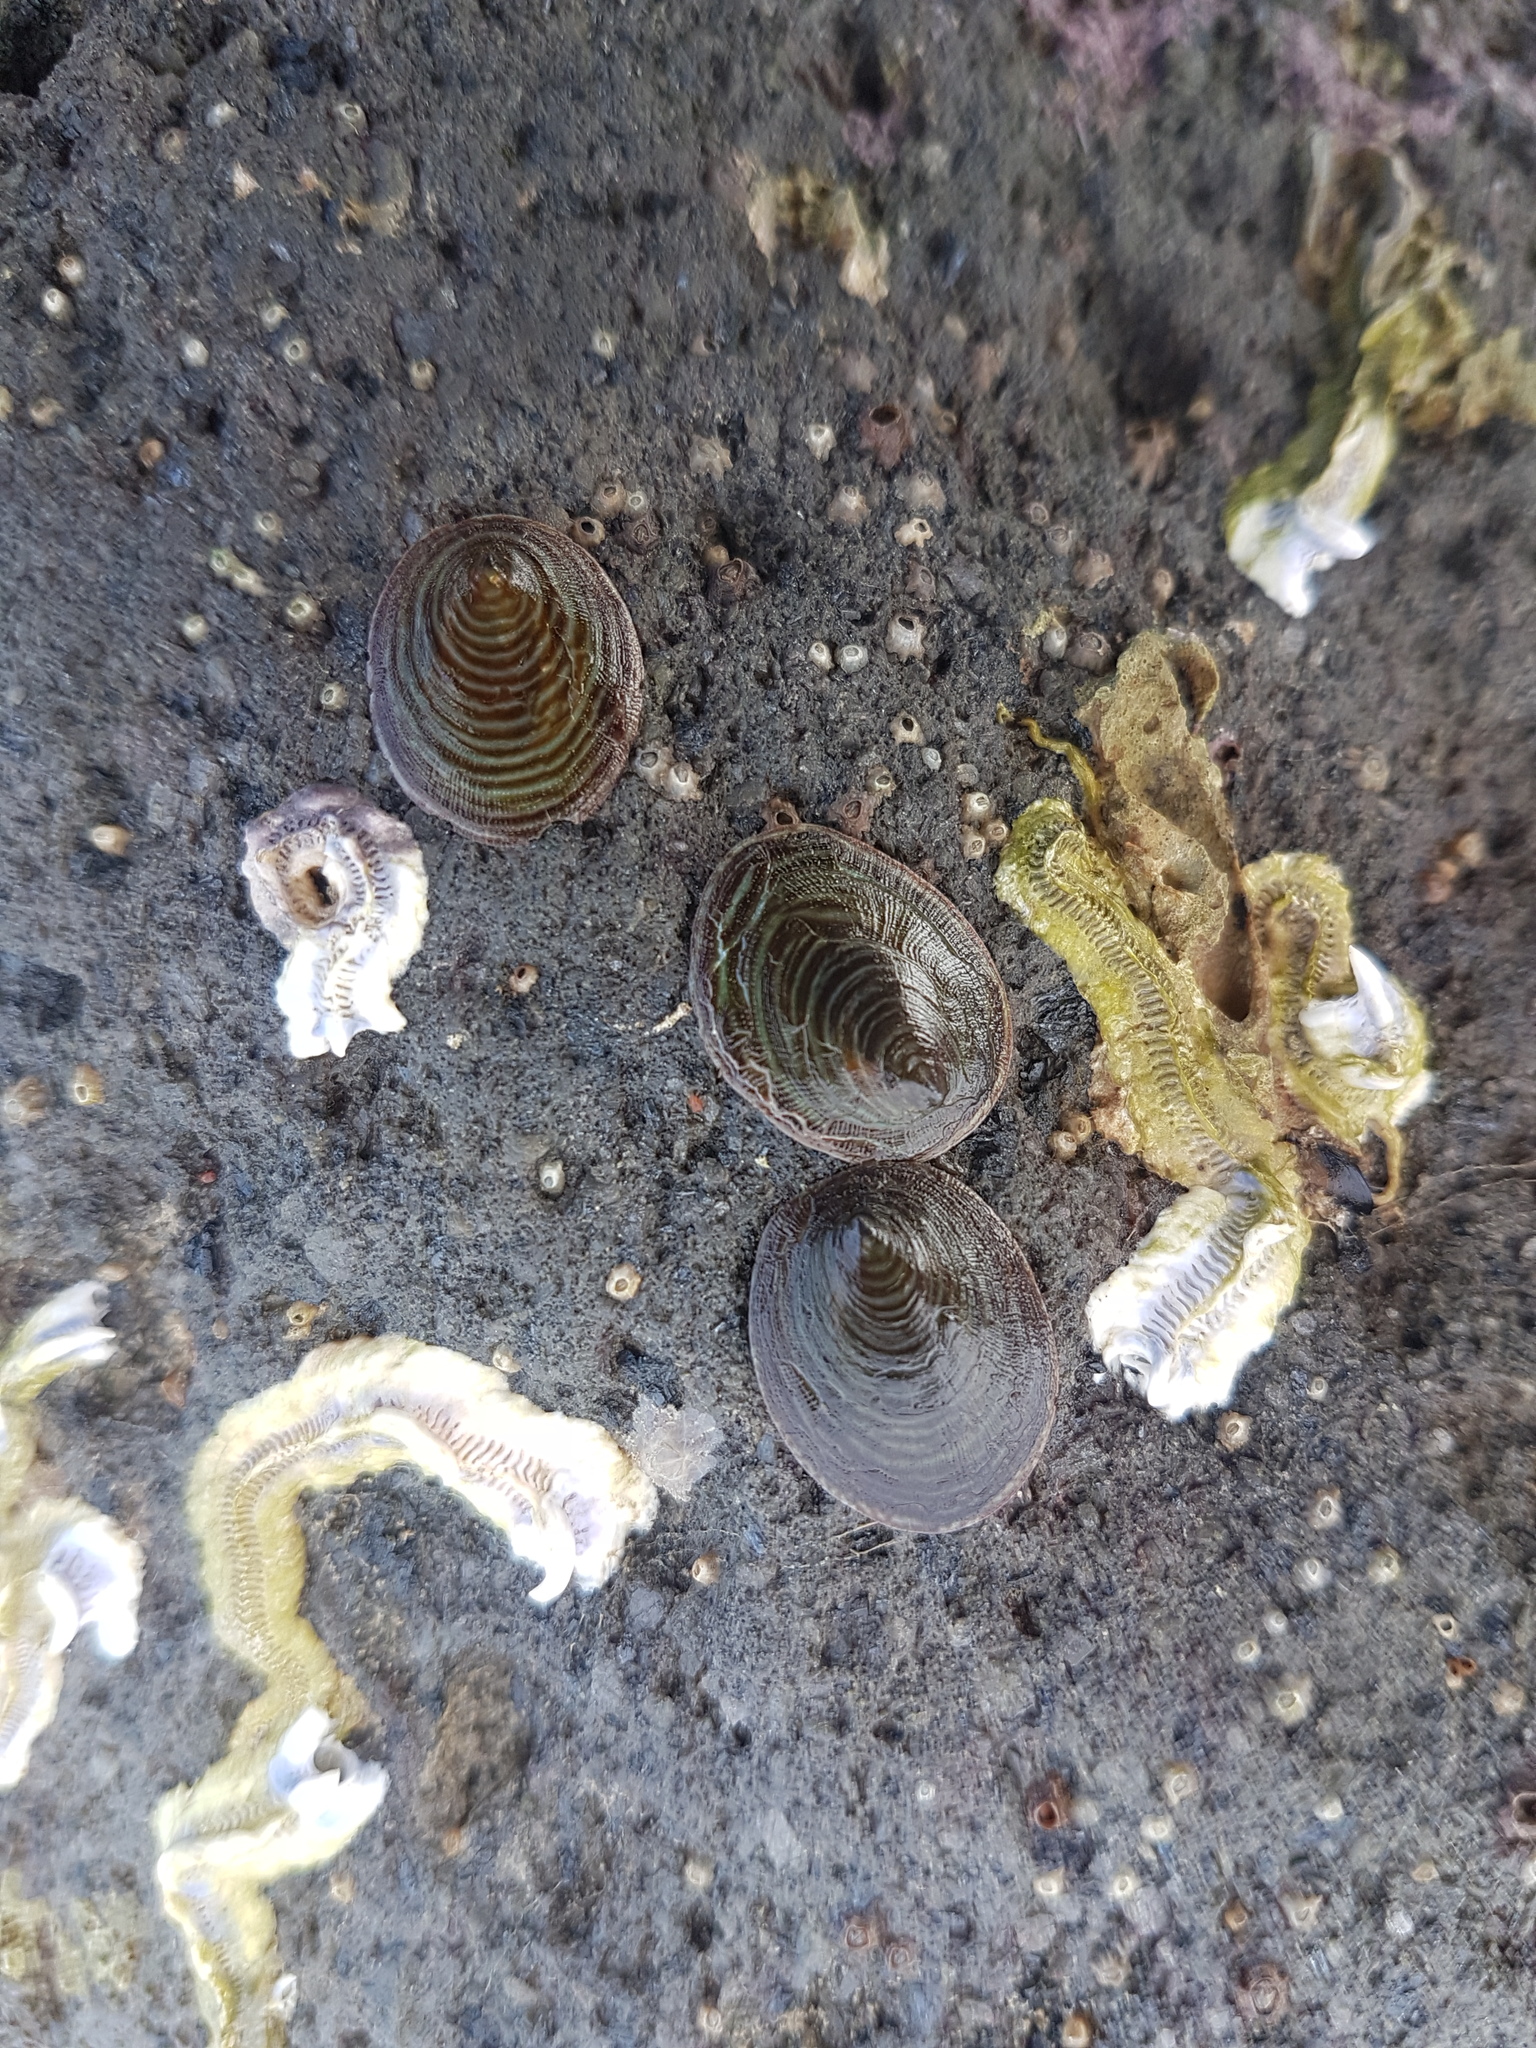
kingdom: Animalia
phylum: Mollusca
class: Gastropoda
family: Lottiidae
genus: Atalacmea
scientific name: Atalacmea fragilis
